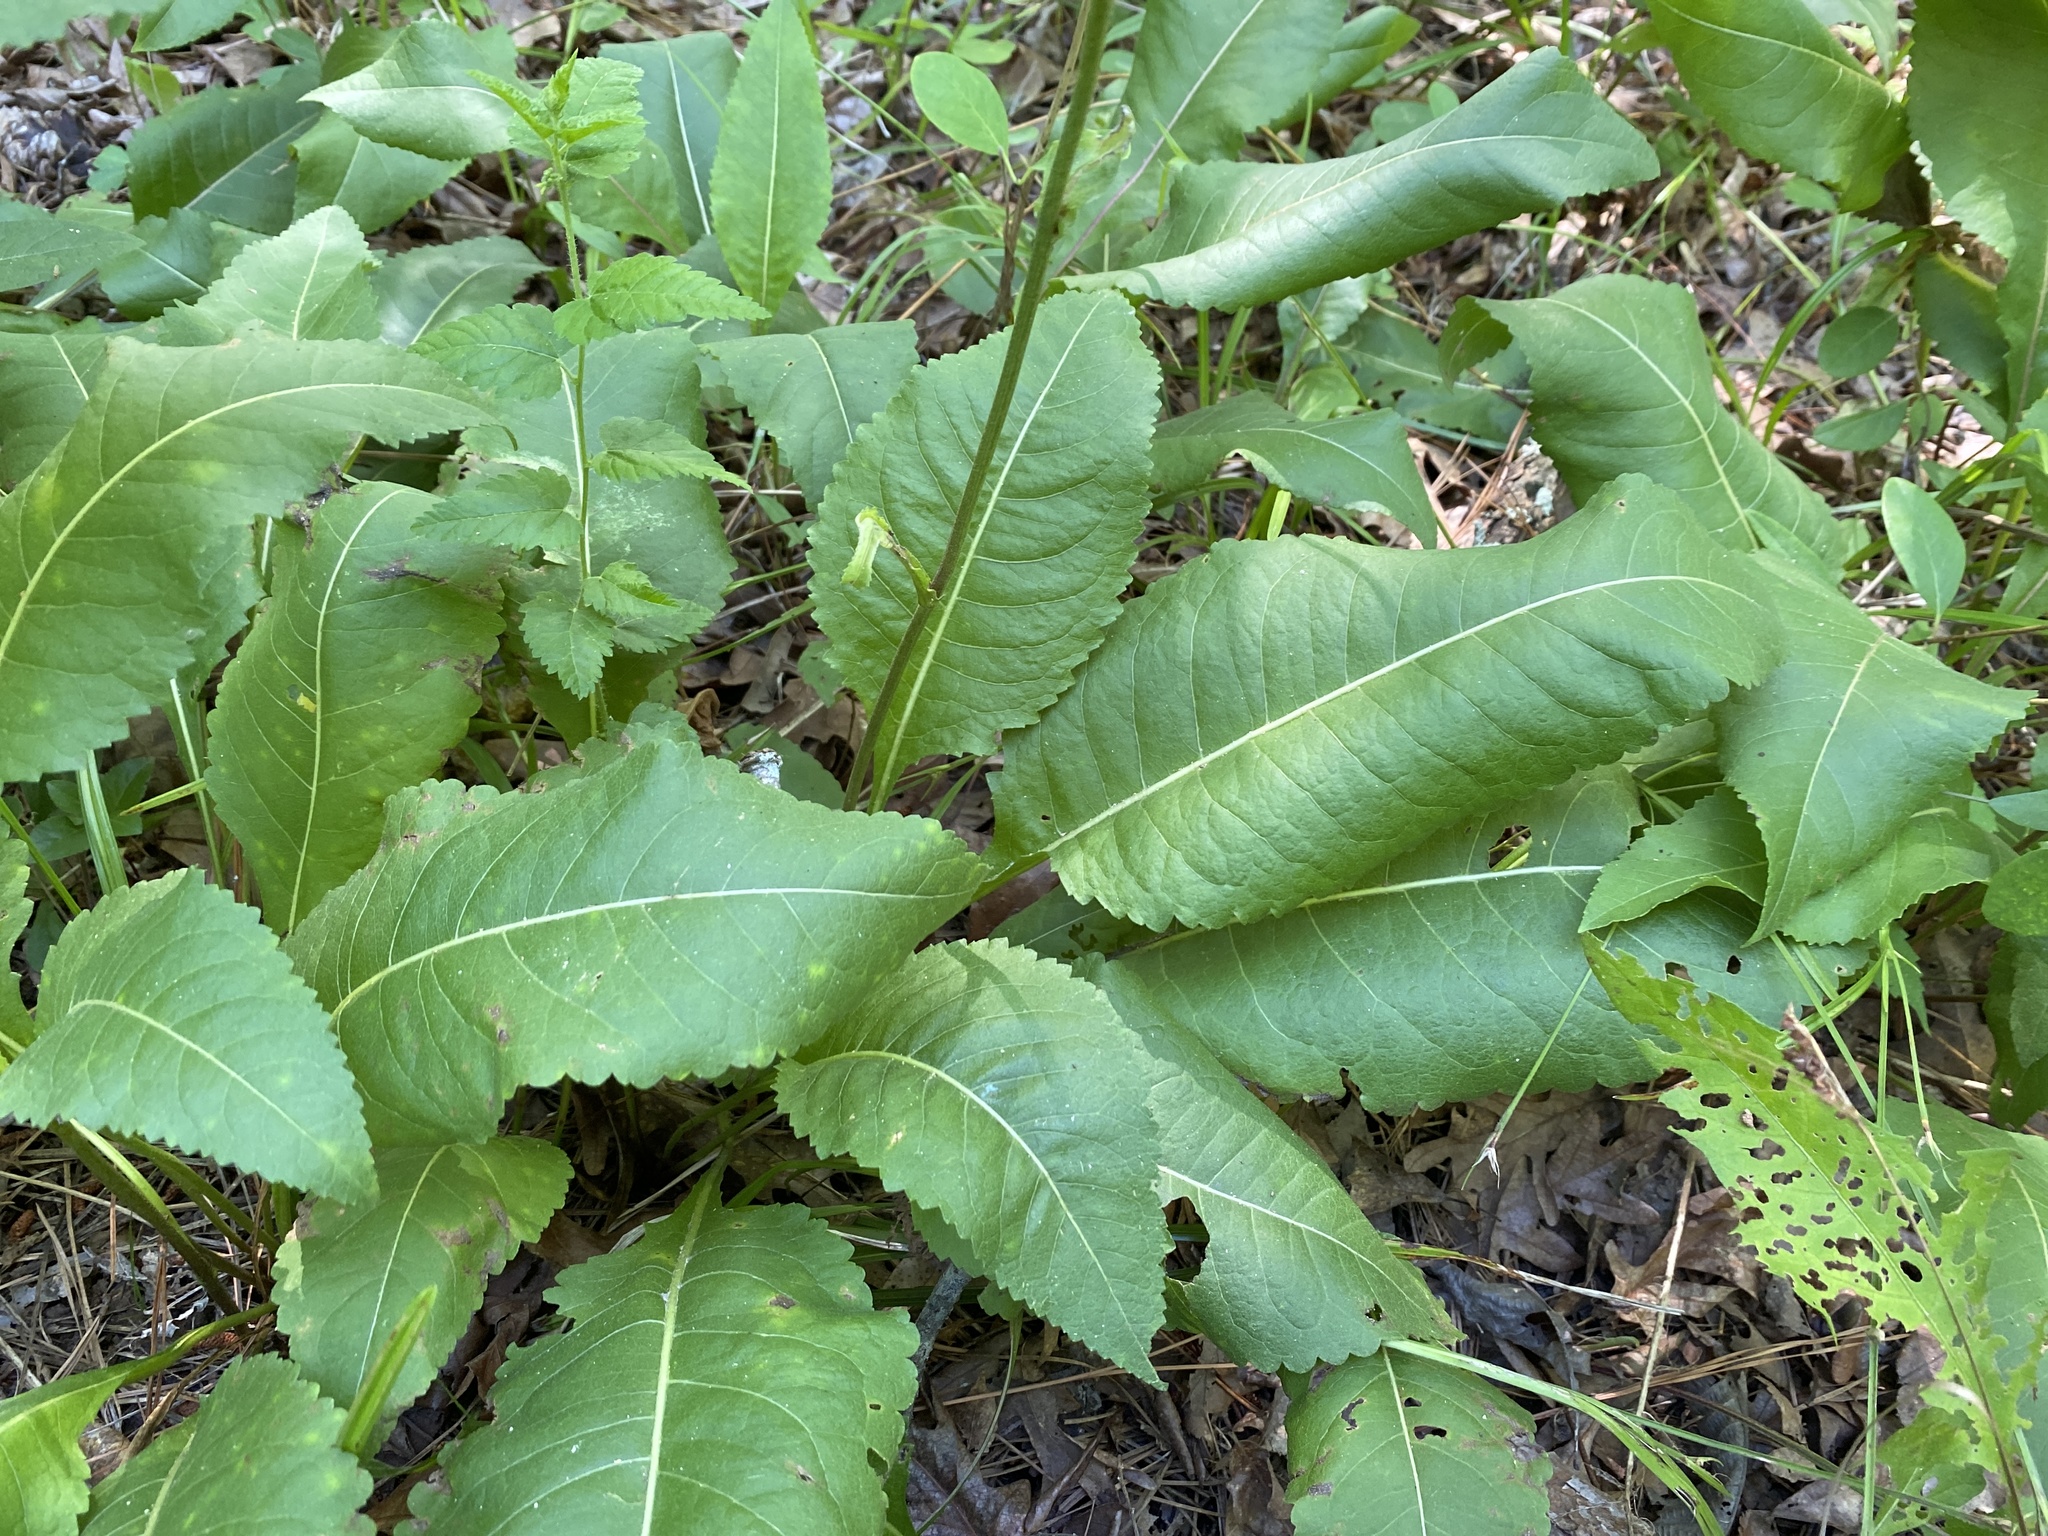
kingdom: Plantae
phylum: Tracheophyta
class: Magnoliopsida
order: Asterales
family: Asteraceae
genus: Parthenium
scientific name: Parthenium integrifolium
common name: American feverfew
